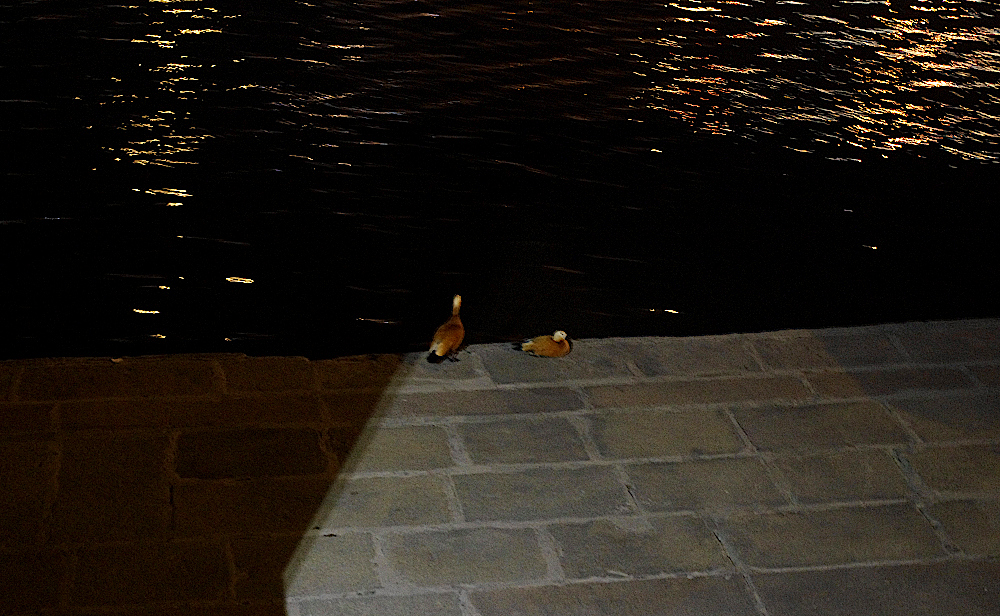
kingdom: Animalia
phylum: Chordata
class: Aves
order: Anseriformes
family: Anatidae
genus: Tadorna
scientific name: Tadorna ferruginea
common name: Ruddy shelduck
